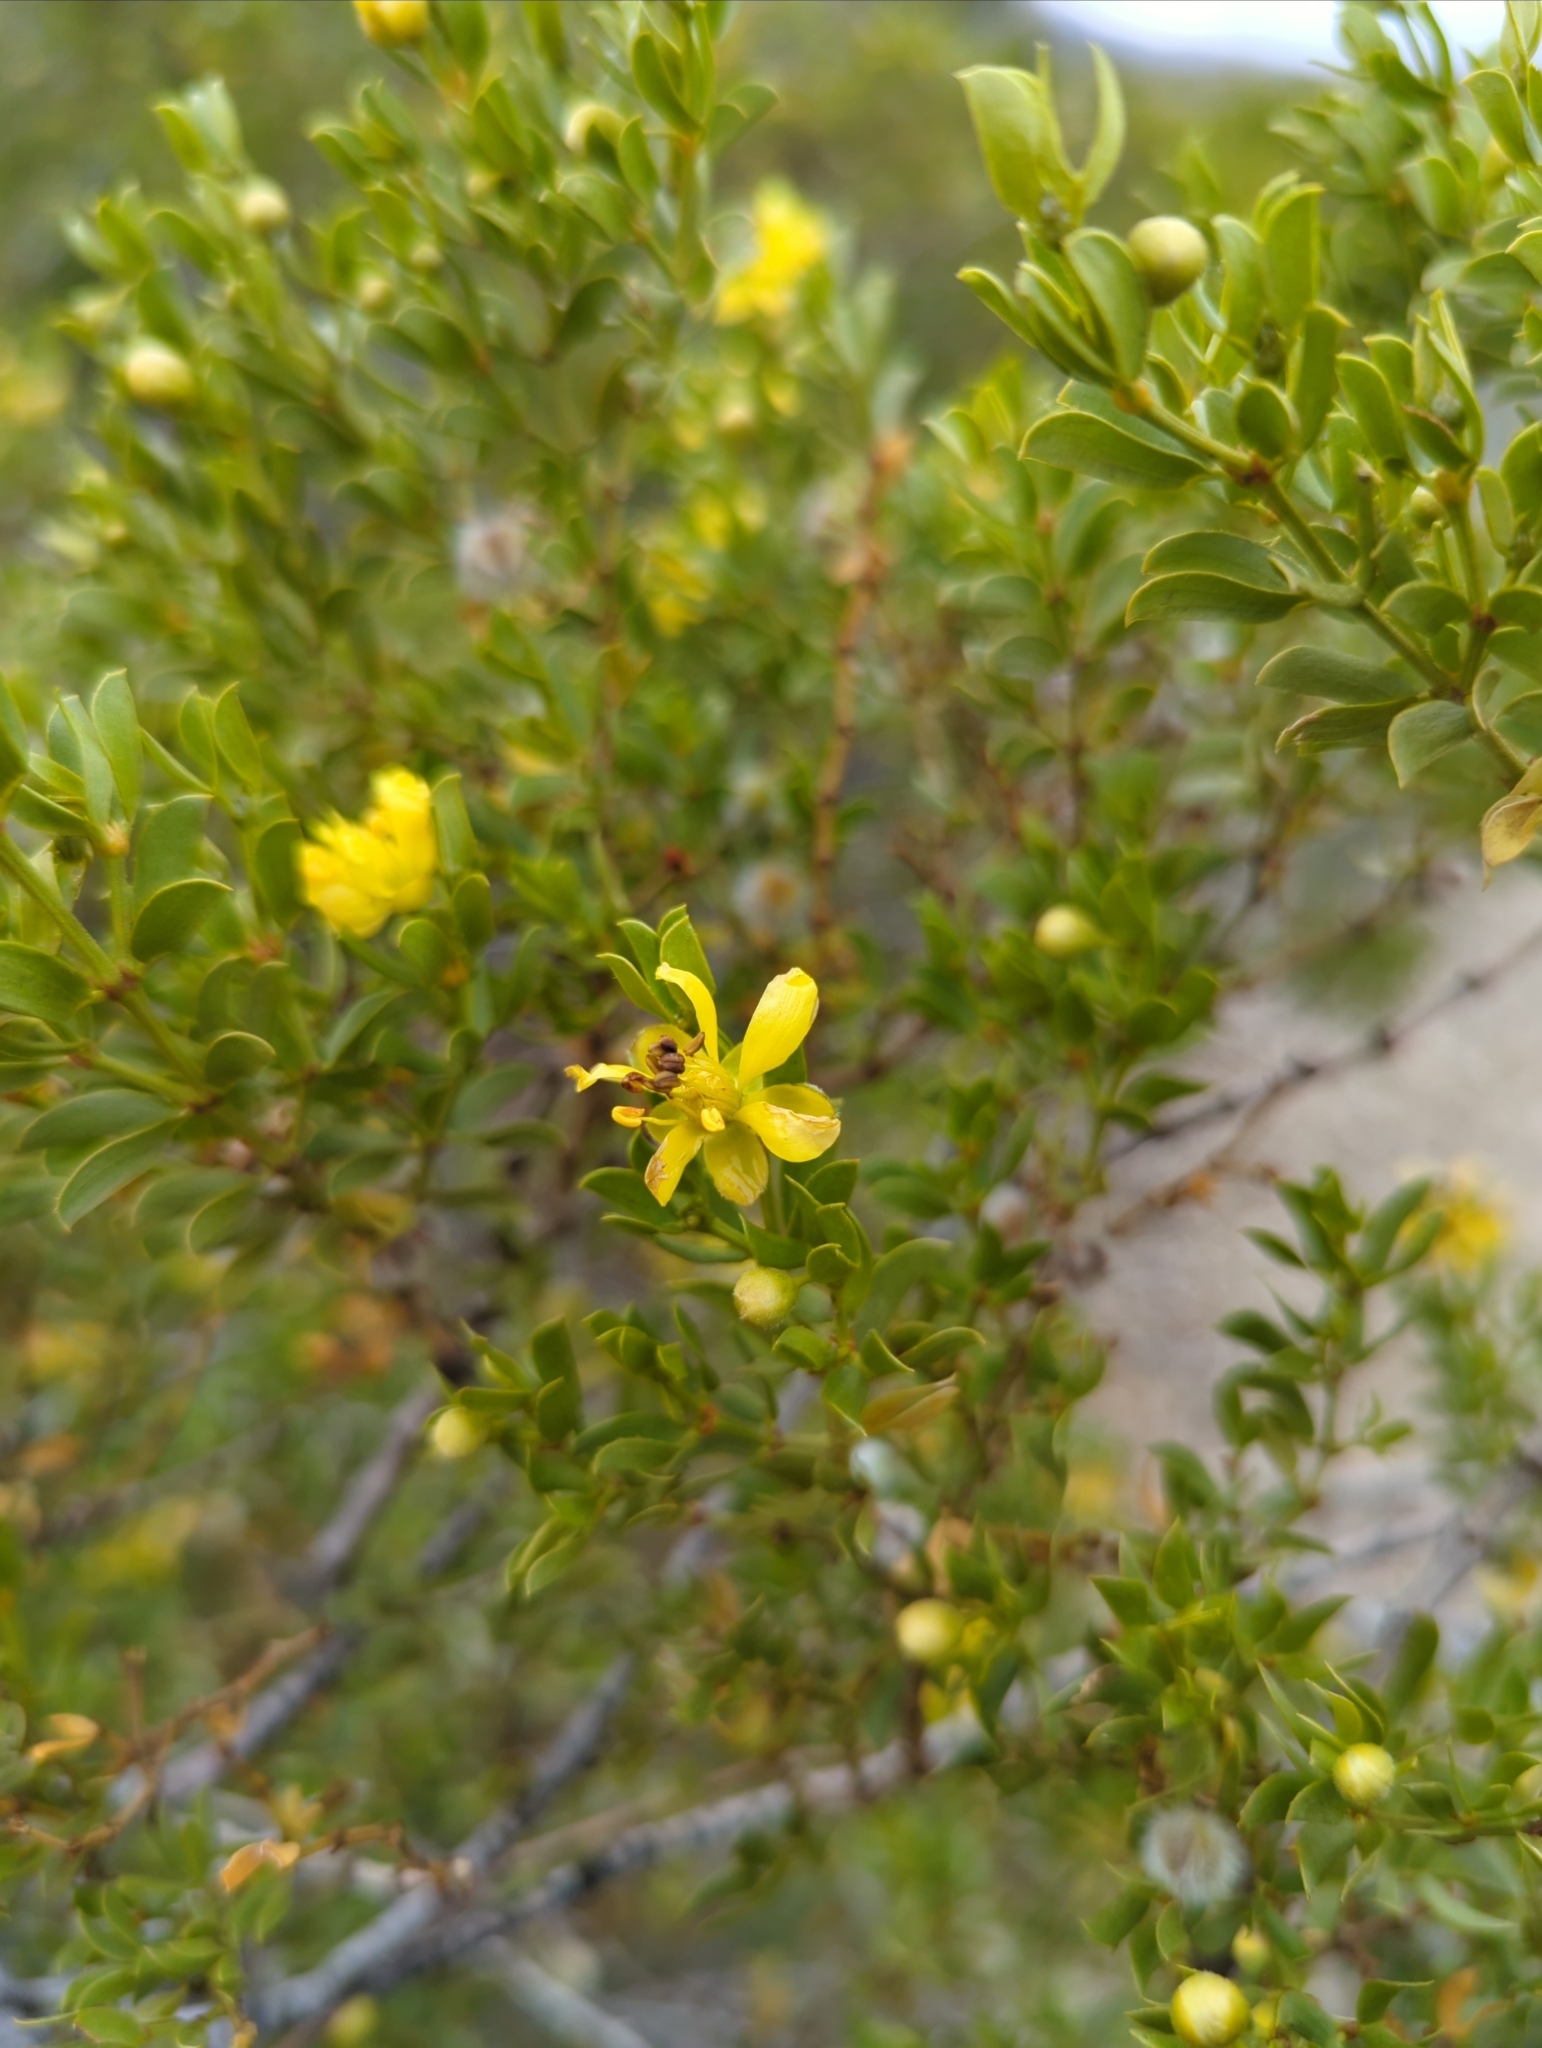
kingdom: Plantae
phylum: Tracheophyta
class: Magnoliopsida
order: Zygophyllales
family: Zygophyllaceae
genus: Larrea
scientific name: Larrea tridentata
